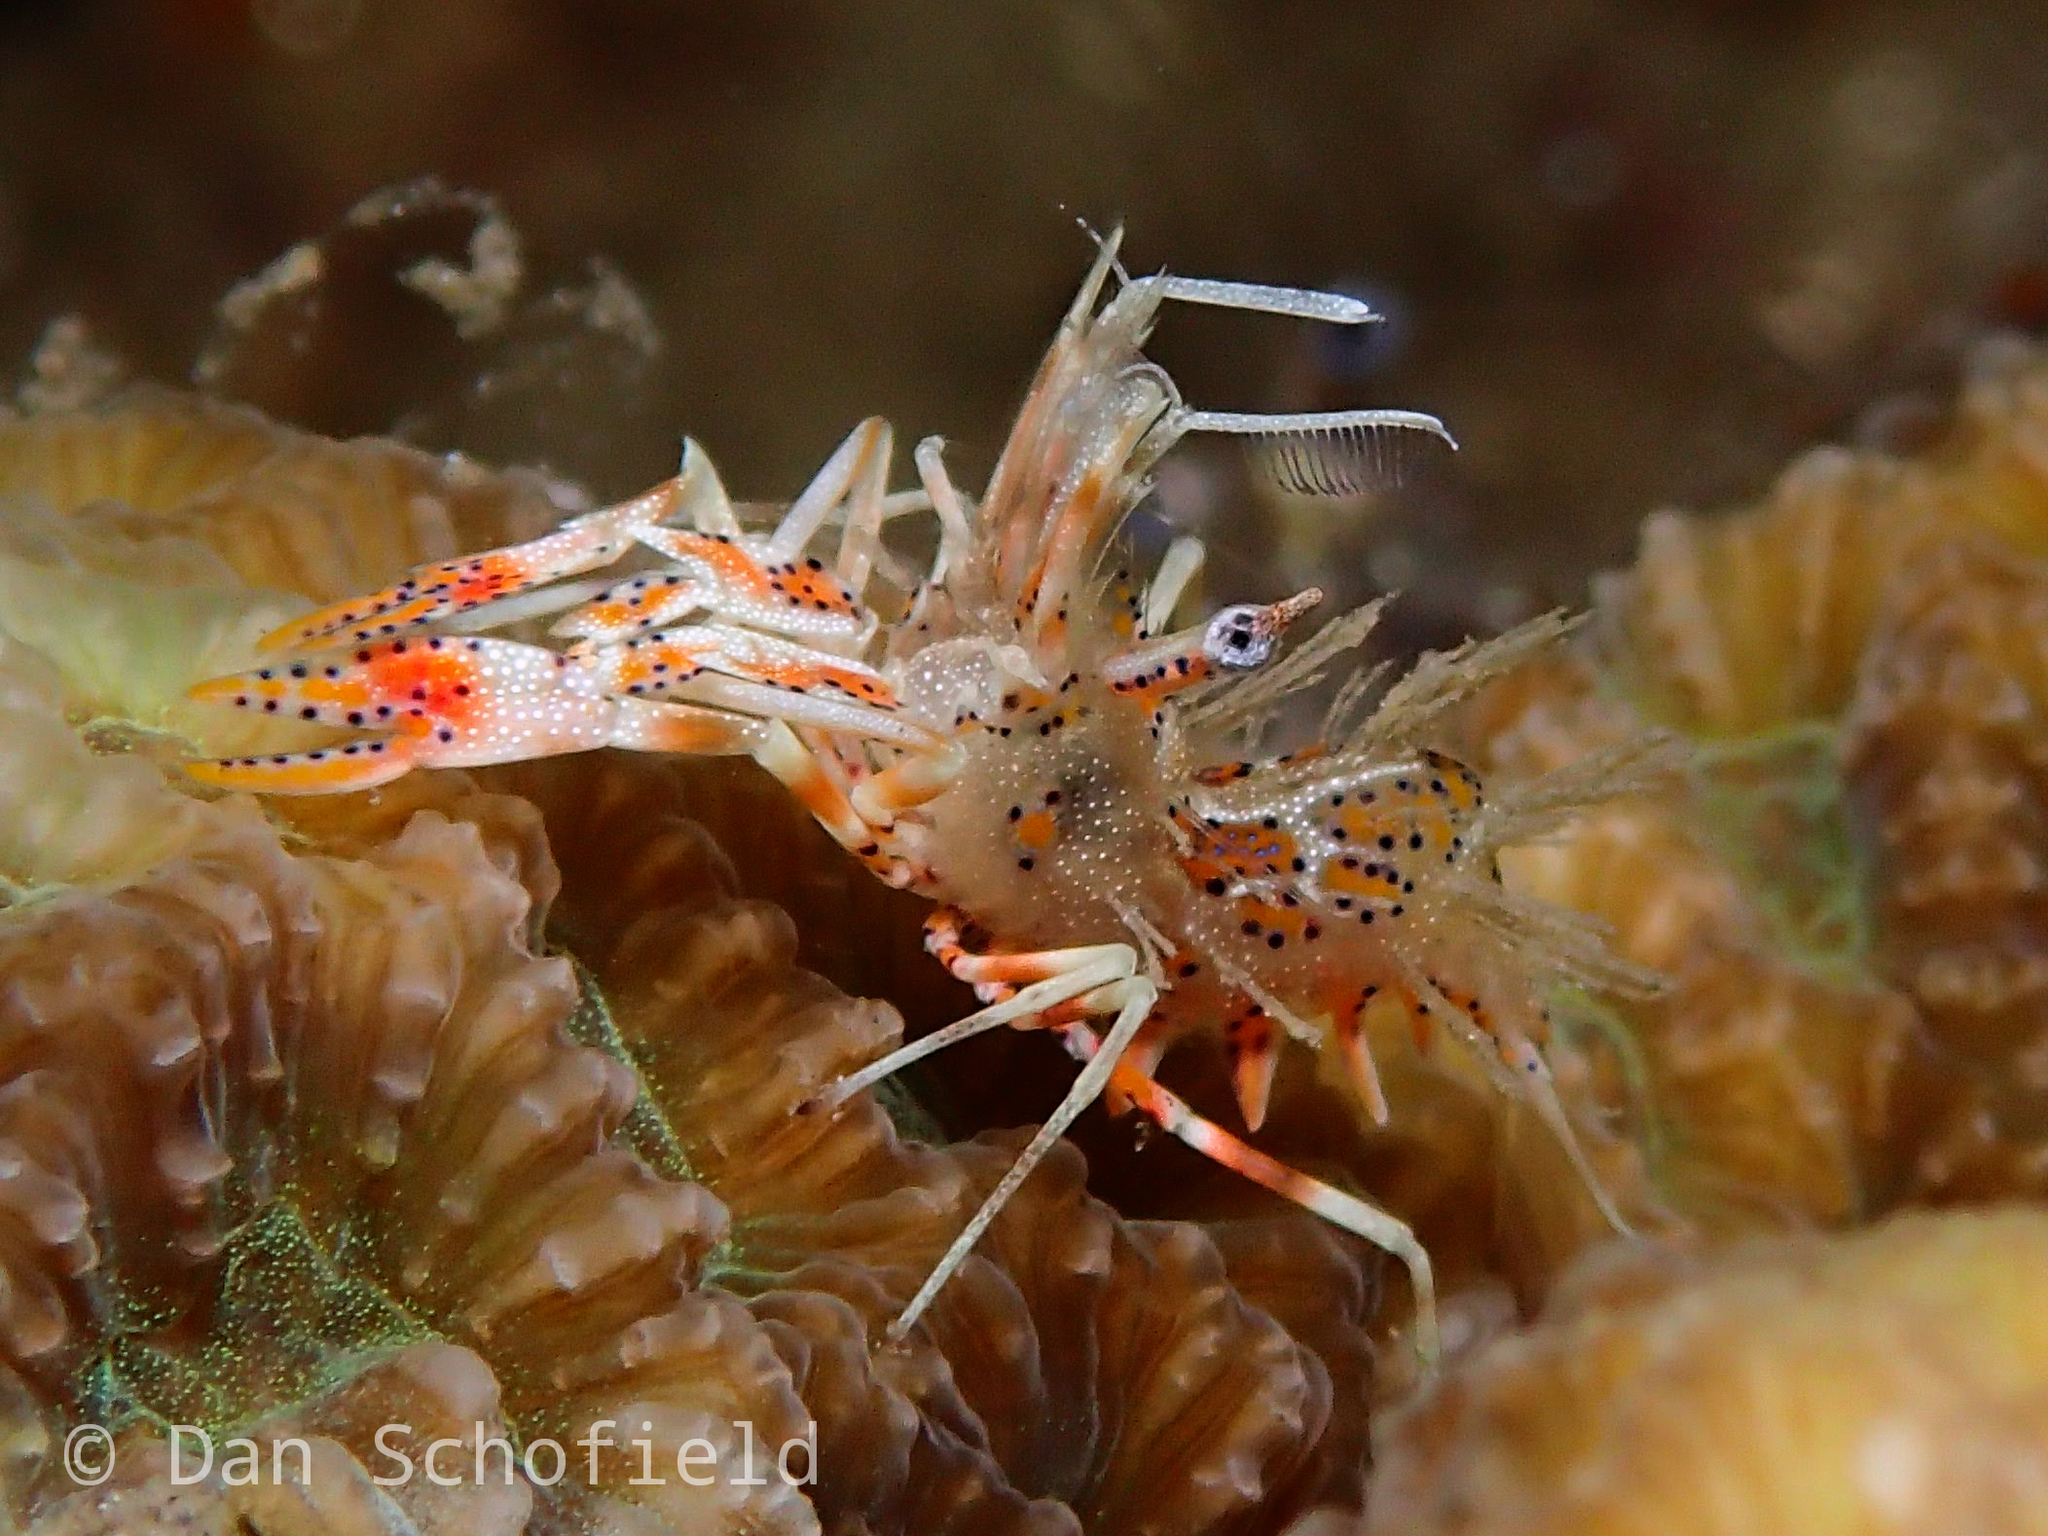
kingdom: Animalia
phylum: Arthropoda
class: Malacostraca
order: Decapoda
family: Palaemonidae
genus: Phyllognathia
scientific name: Phyllognathia ceratophthalma
